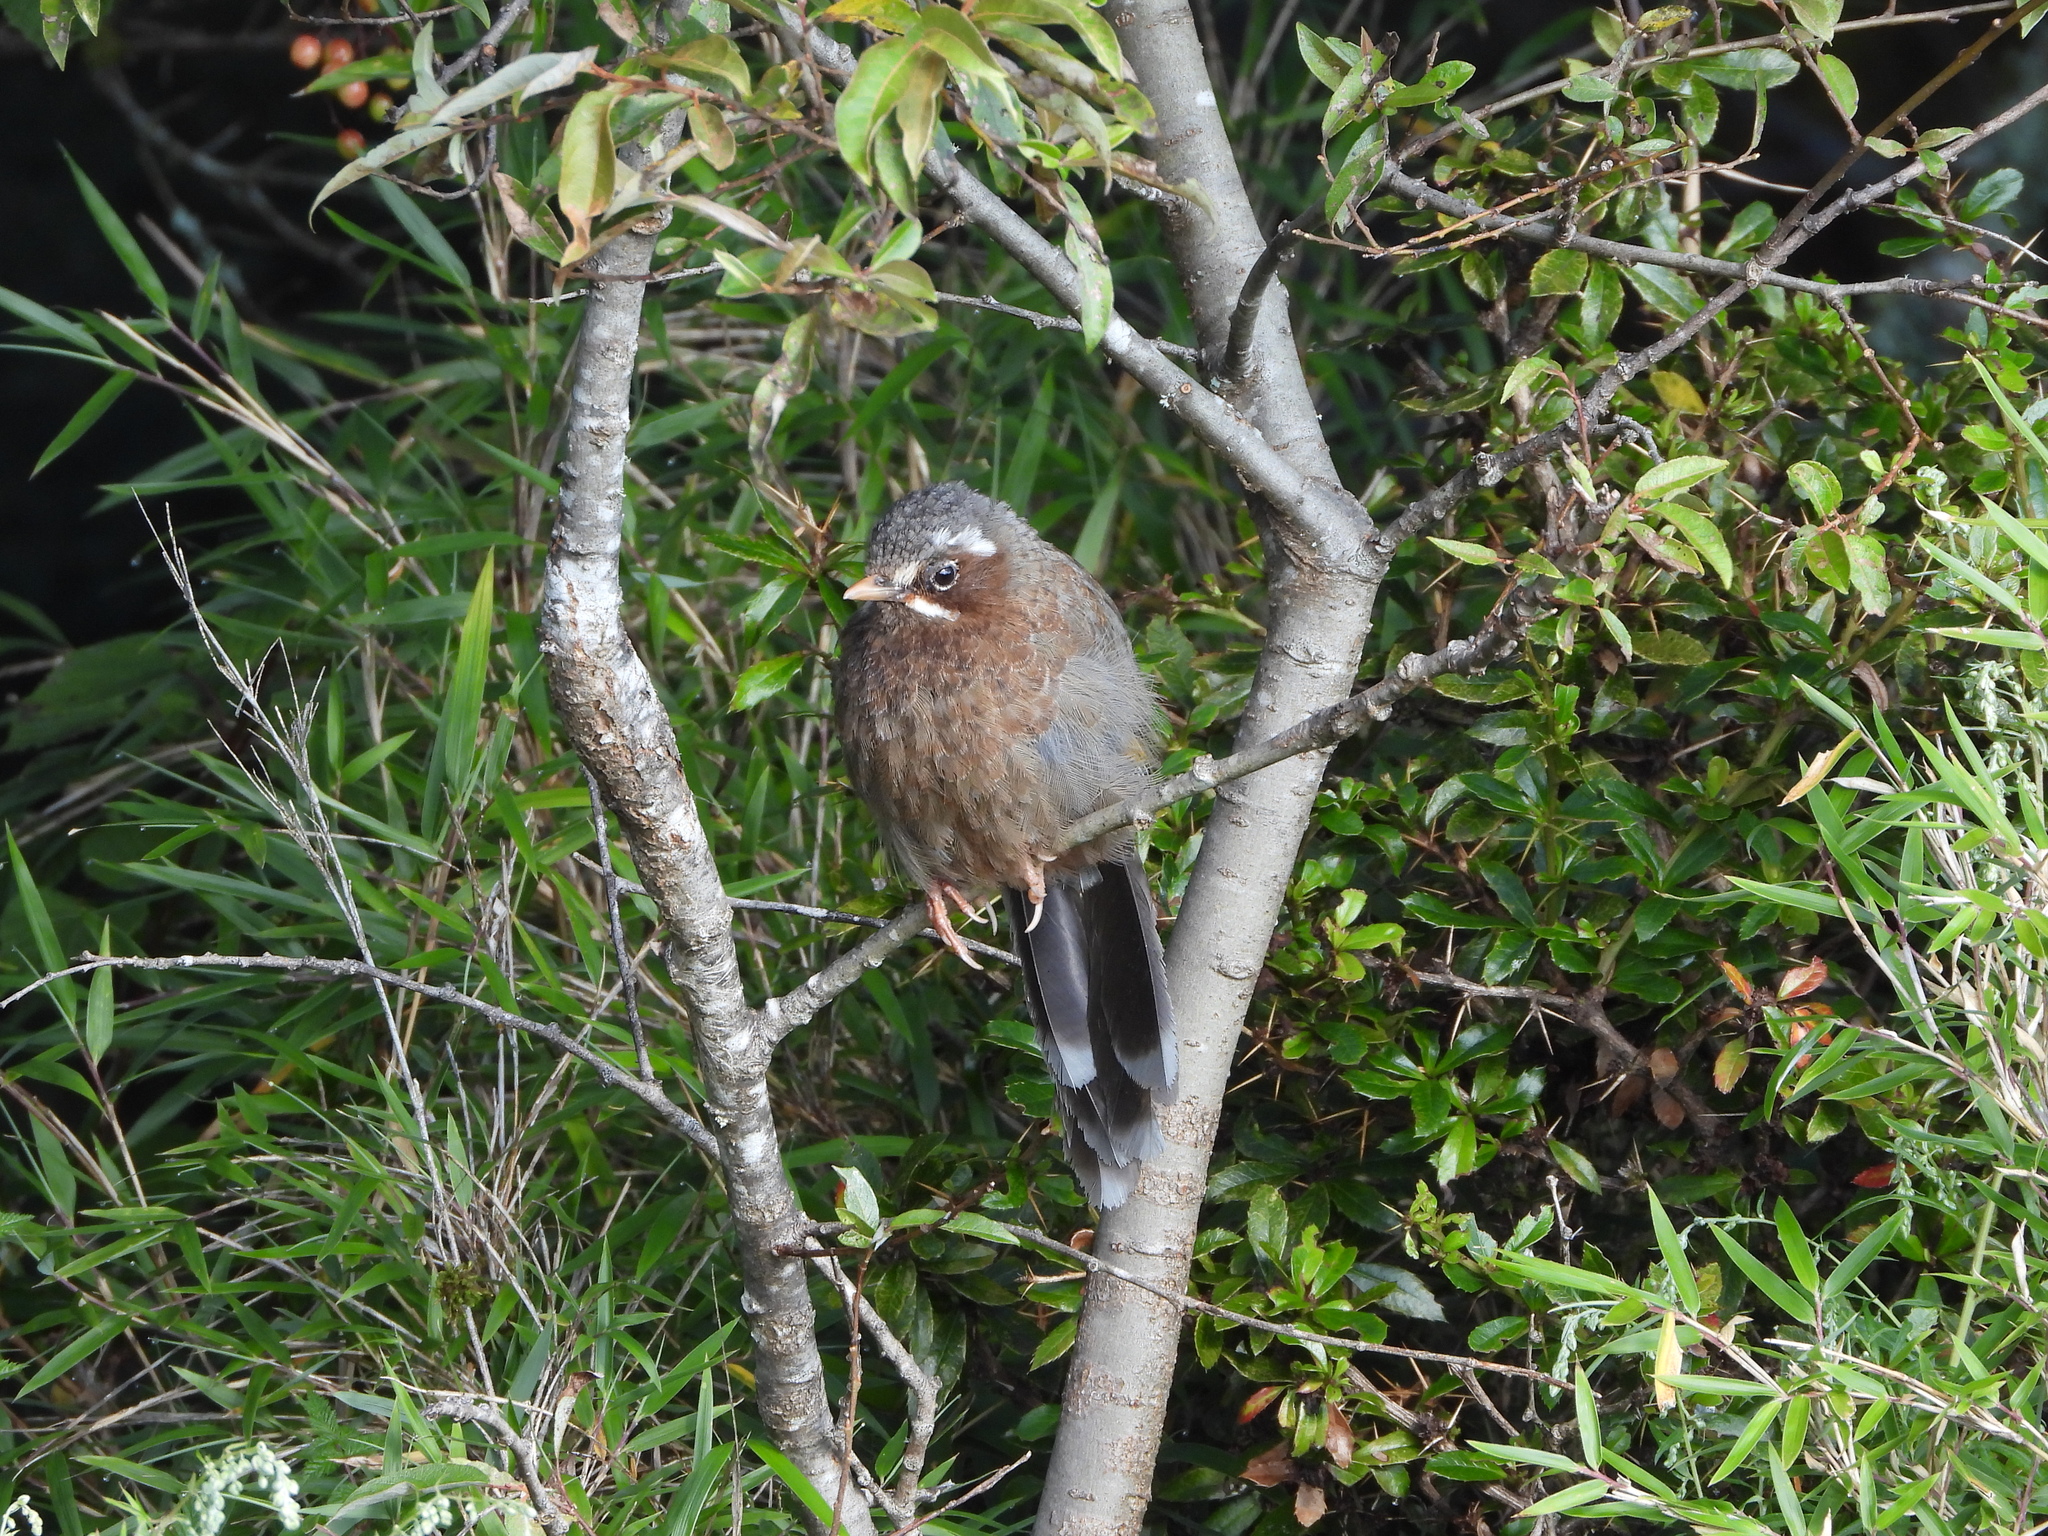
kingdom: Animalia
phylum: Chordata
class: Aves
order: Passeriformes
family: Leiothrichidae
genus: Trochalopteron
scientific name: Trochalopteron morrisonianum
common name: White-whiskered laughingthrush
